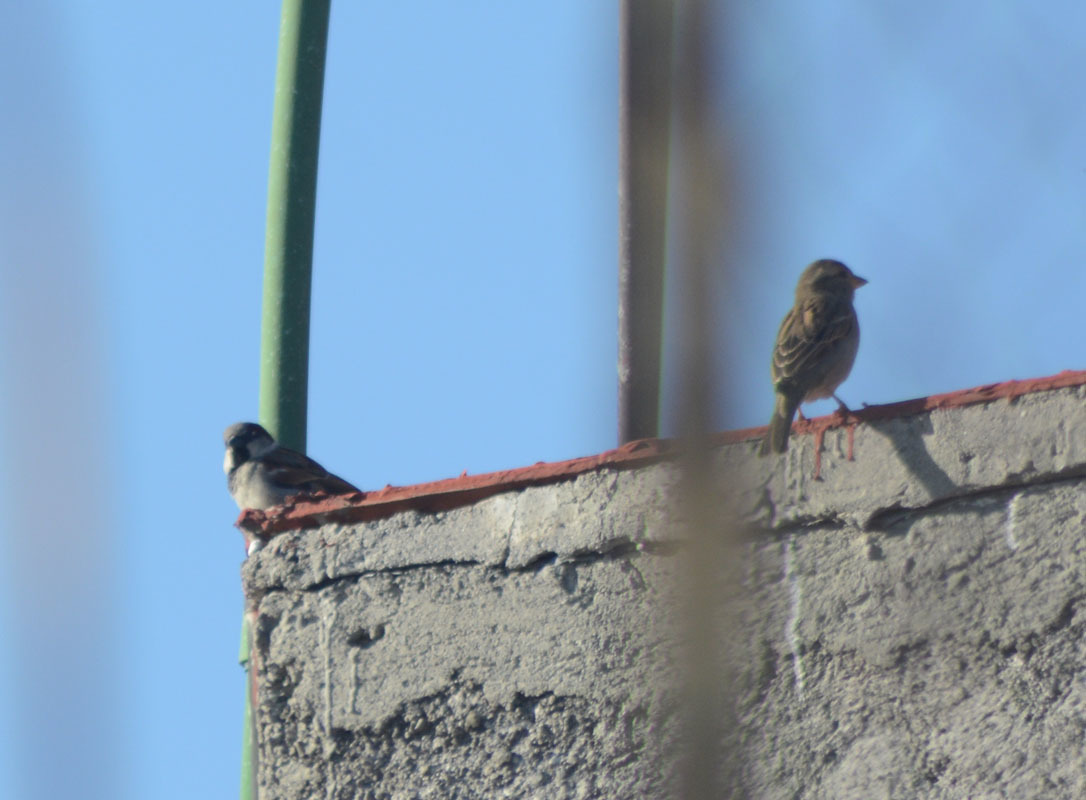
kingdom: Animalia
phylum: Chordata
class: Aves
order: Passeriformes
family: Passeridae
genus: Passer
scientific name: Passer domesticus
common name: House sparrow
